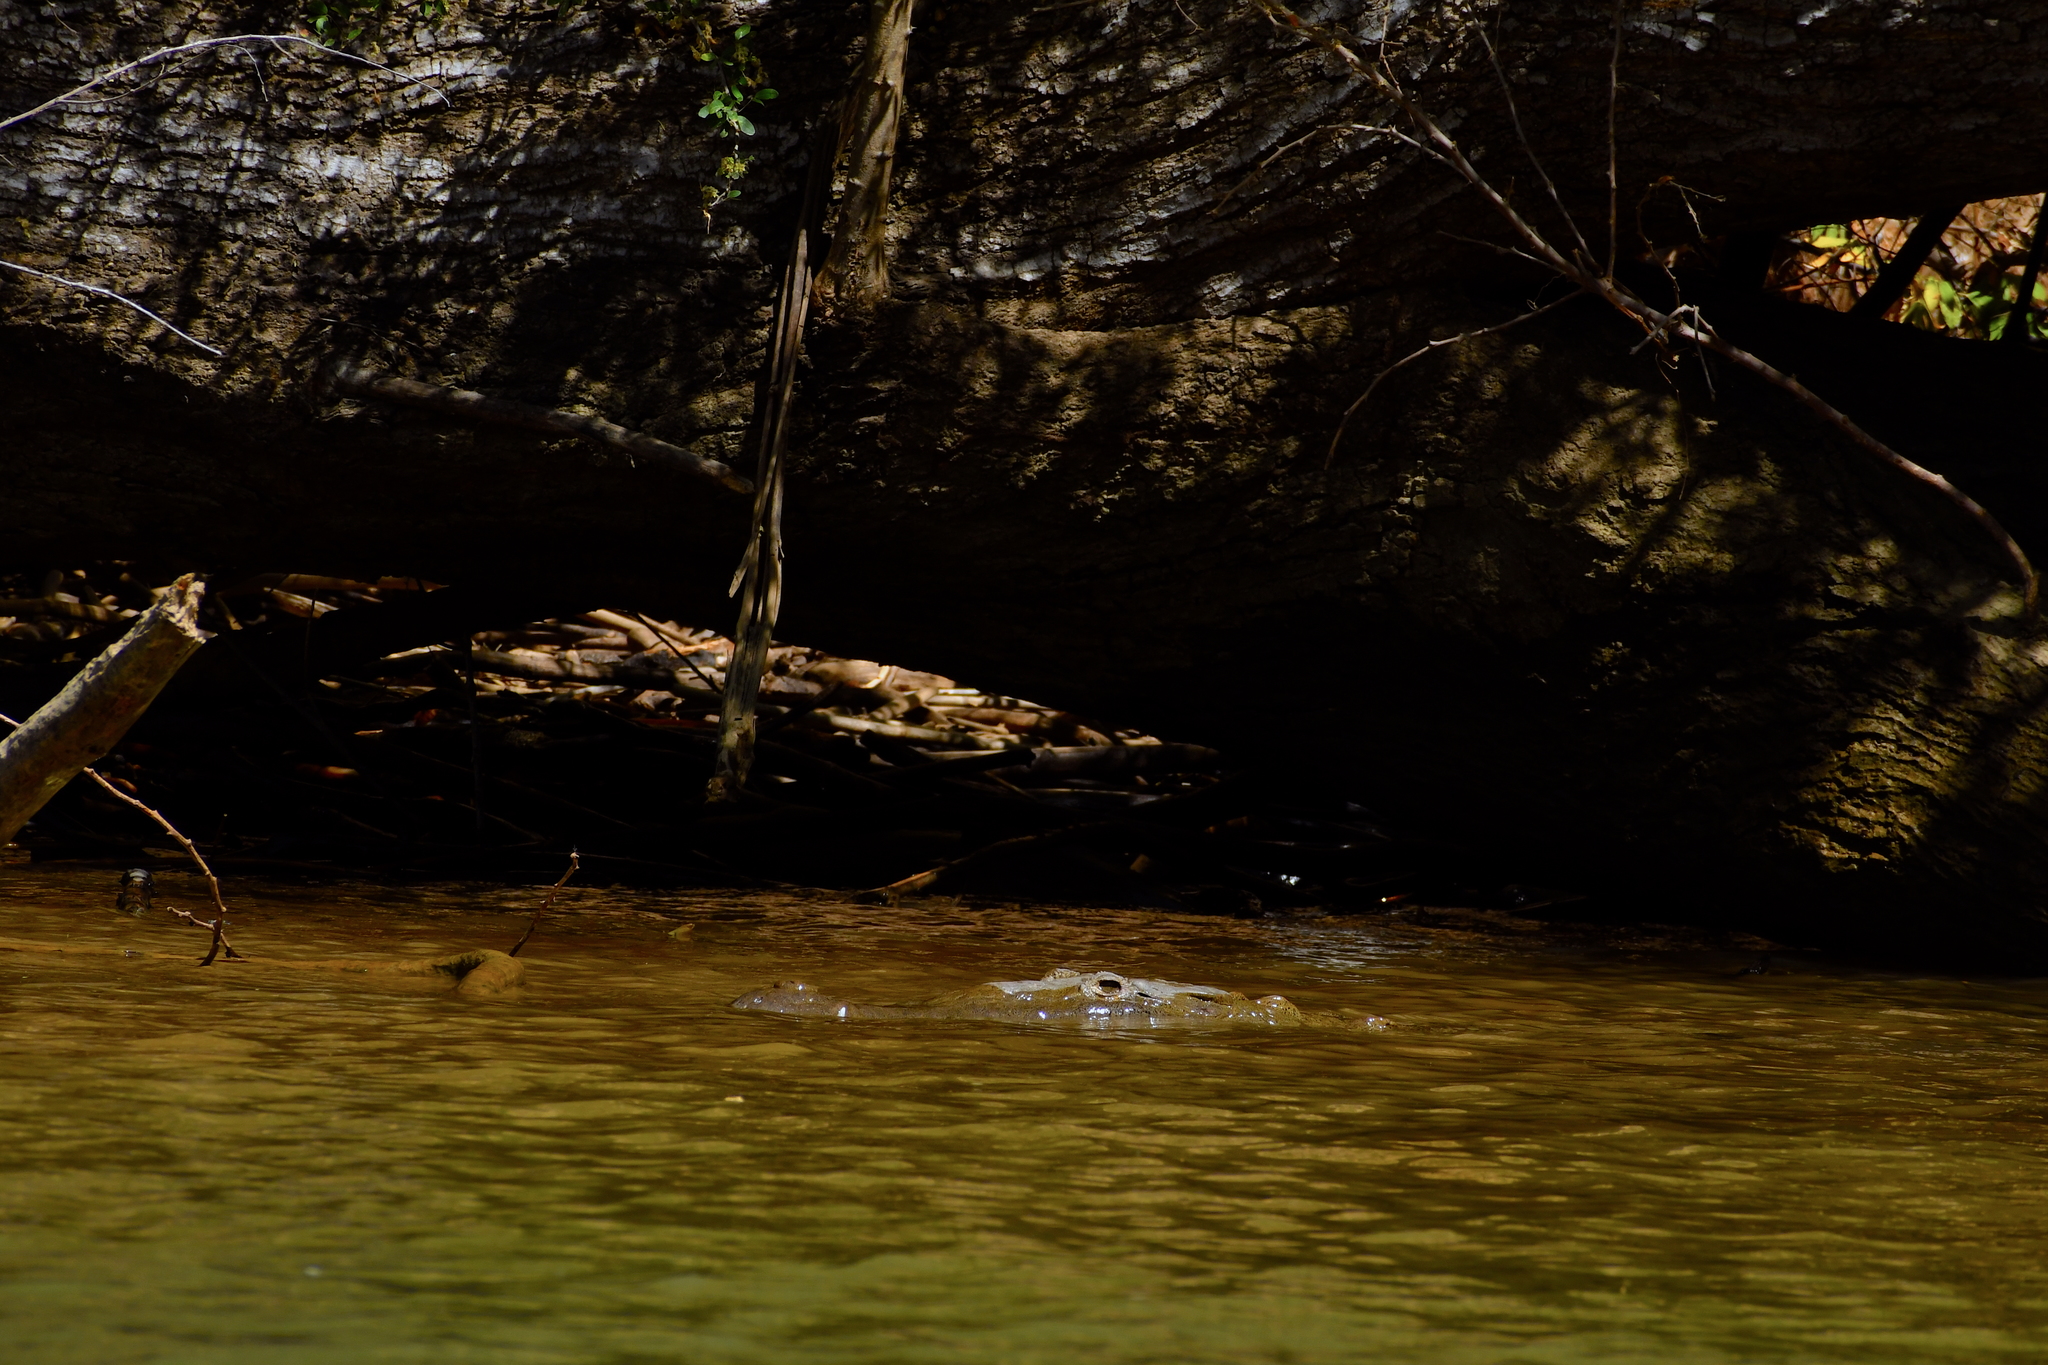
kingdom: Animalia
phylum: Chordata
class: Crocodylia
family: Crocodylidae
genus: Crocodylus
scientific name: Crocodylus acutus
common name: American crocodile
